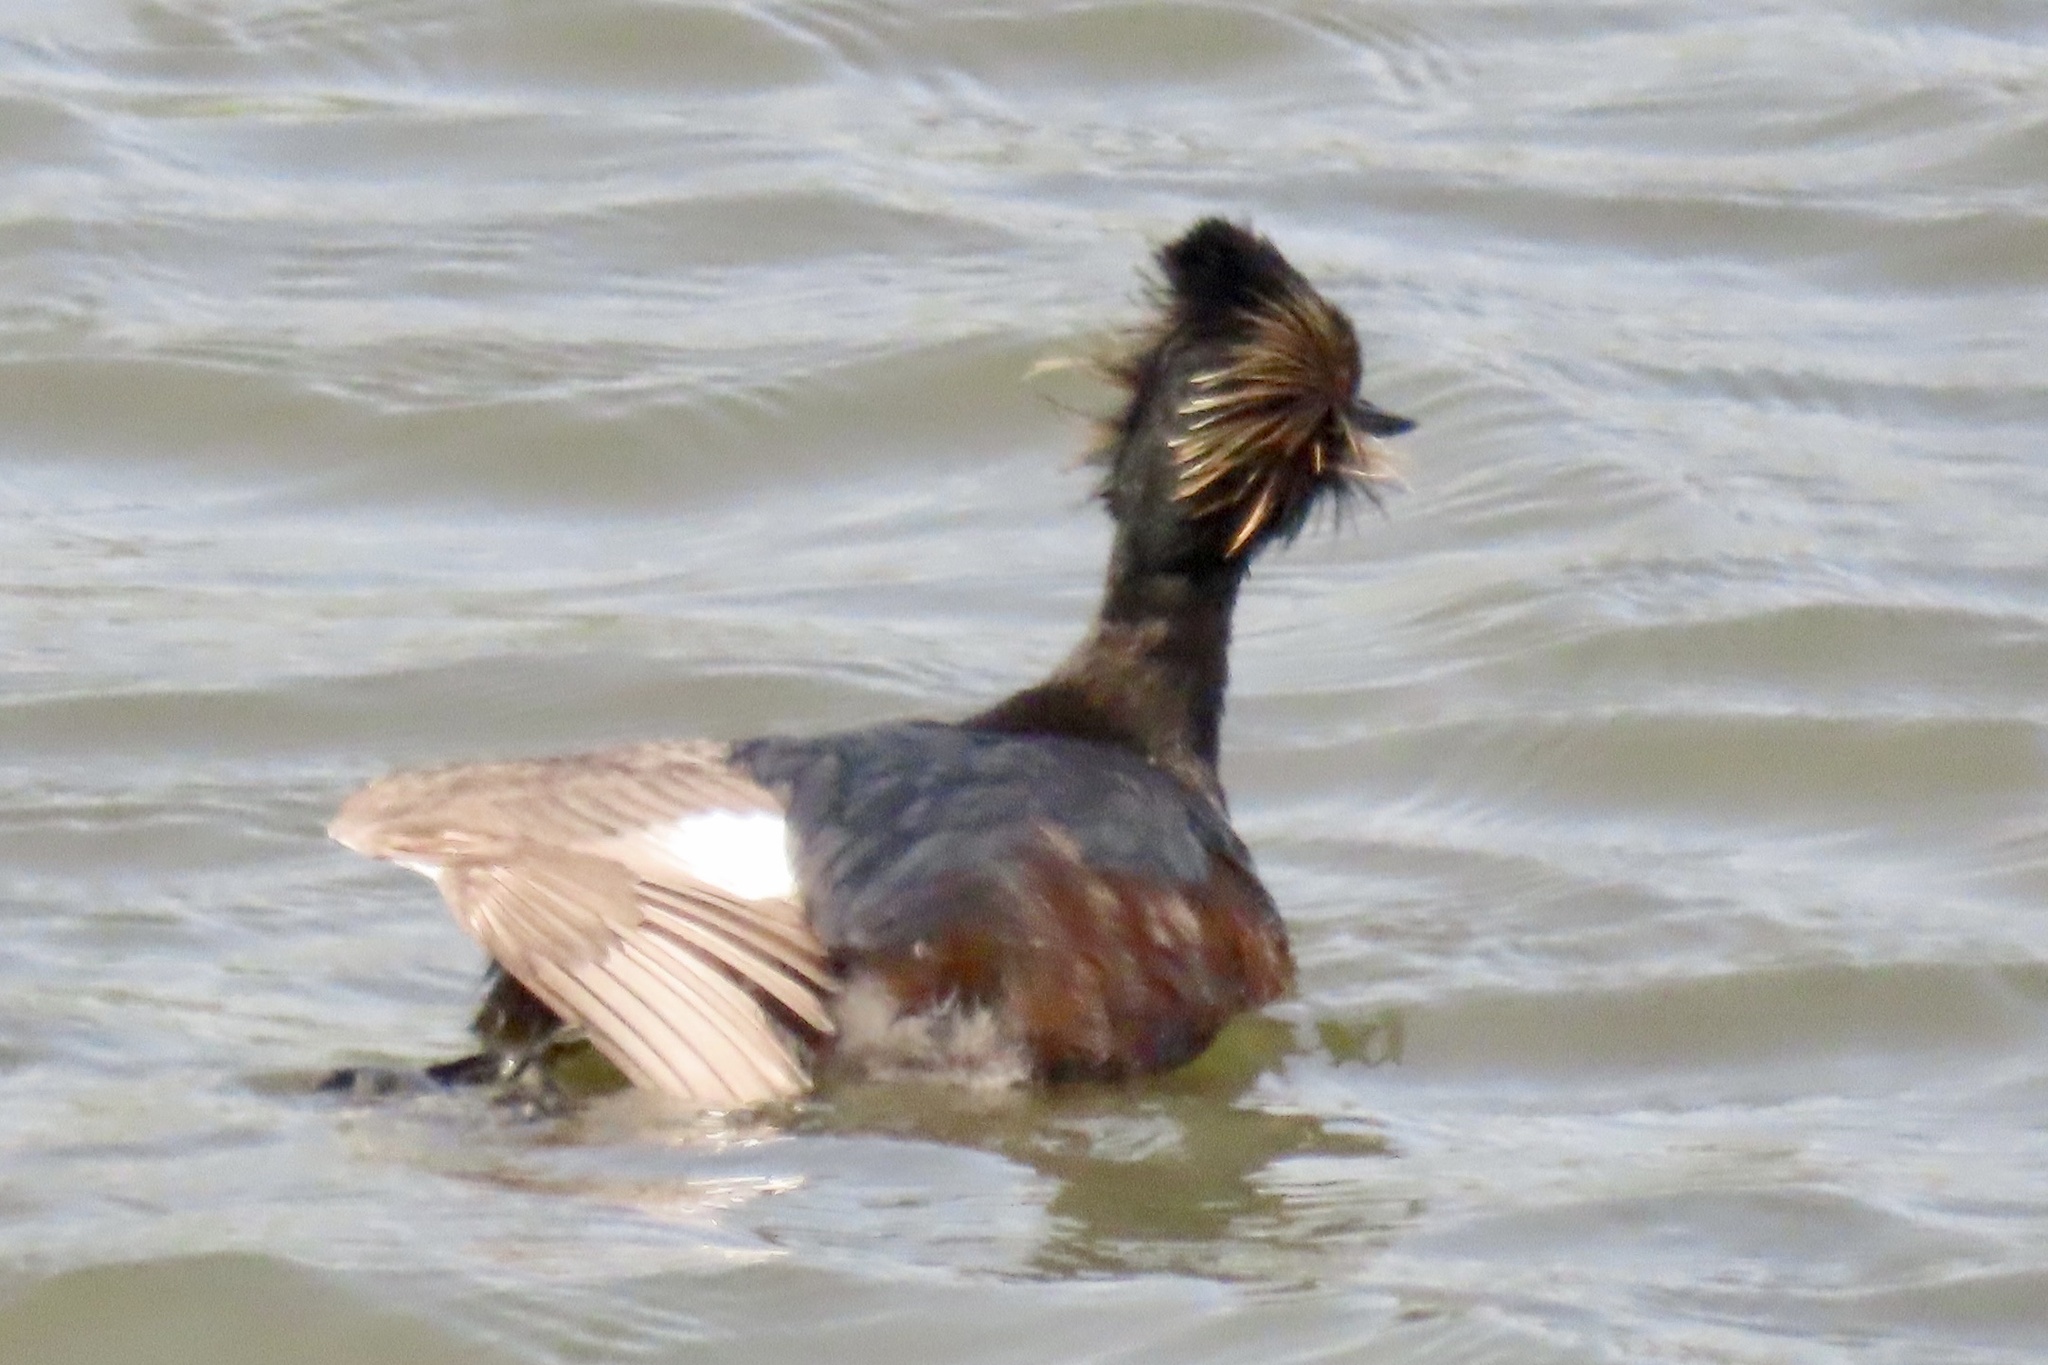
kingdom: Animalia
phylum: Chordata
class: Aves
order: Podicipediformes
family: Podicipedidae
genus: Podiceps
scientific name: Podiceps nigricollis
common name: Black-necked grebe
